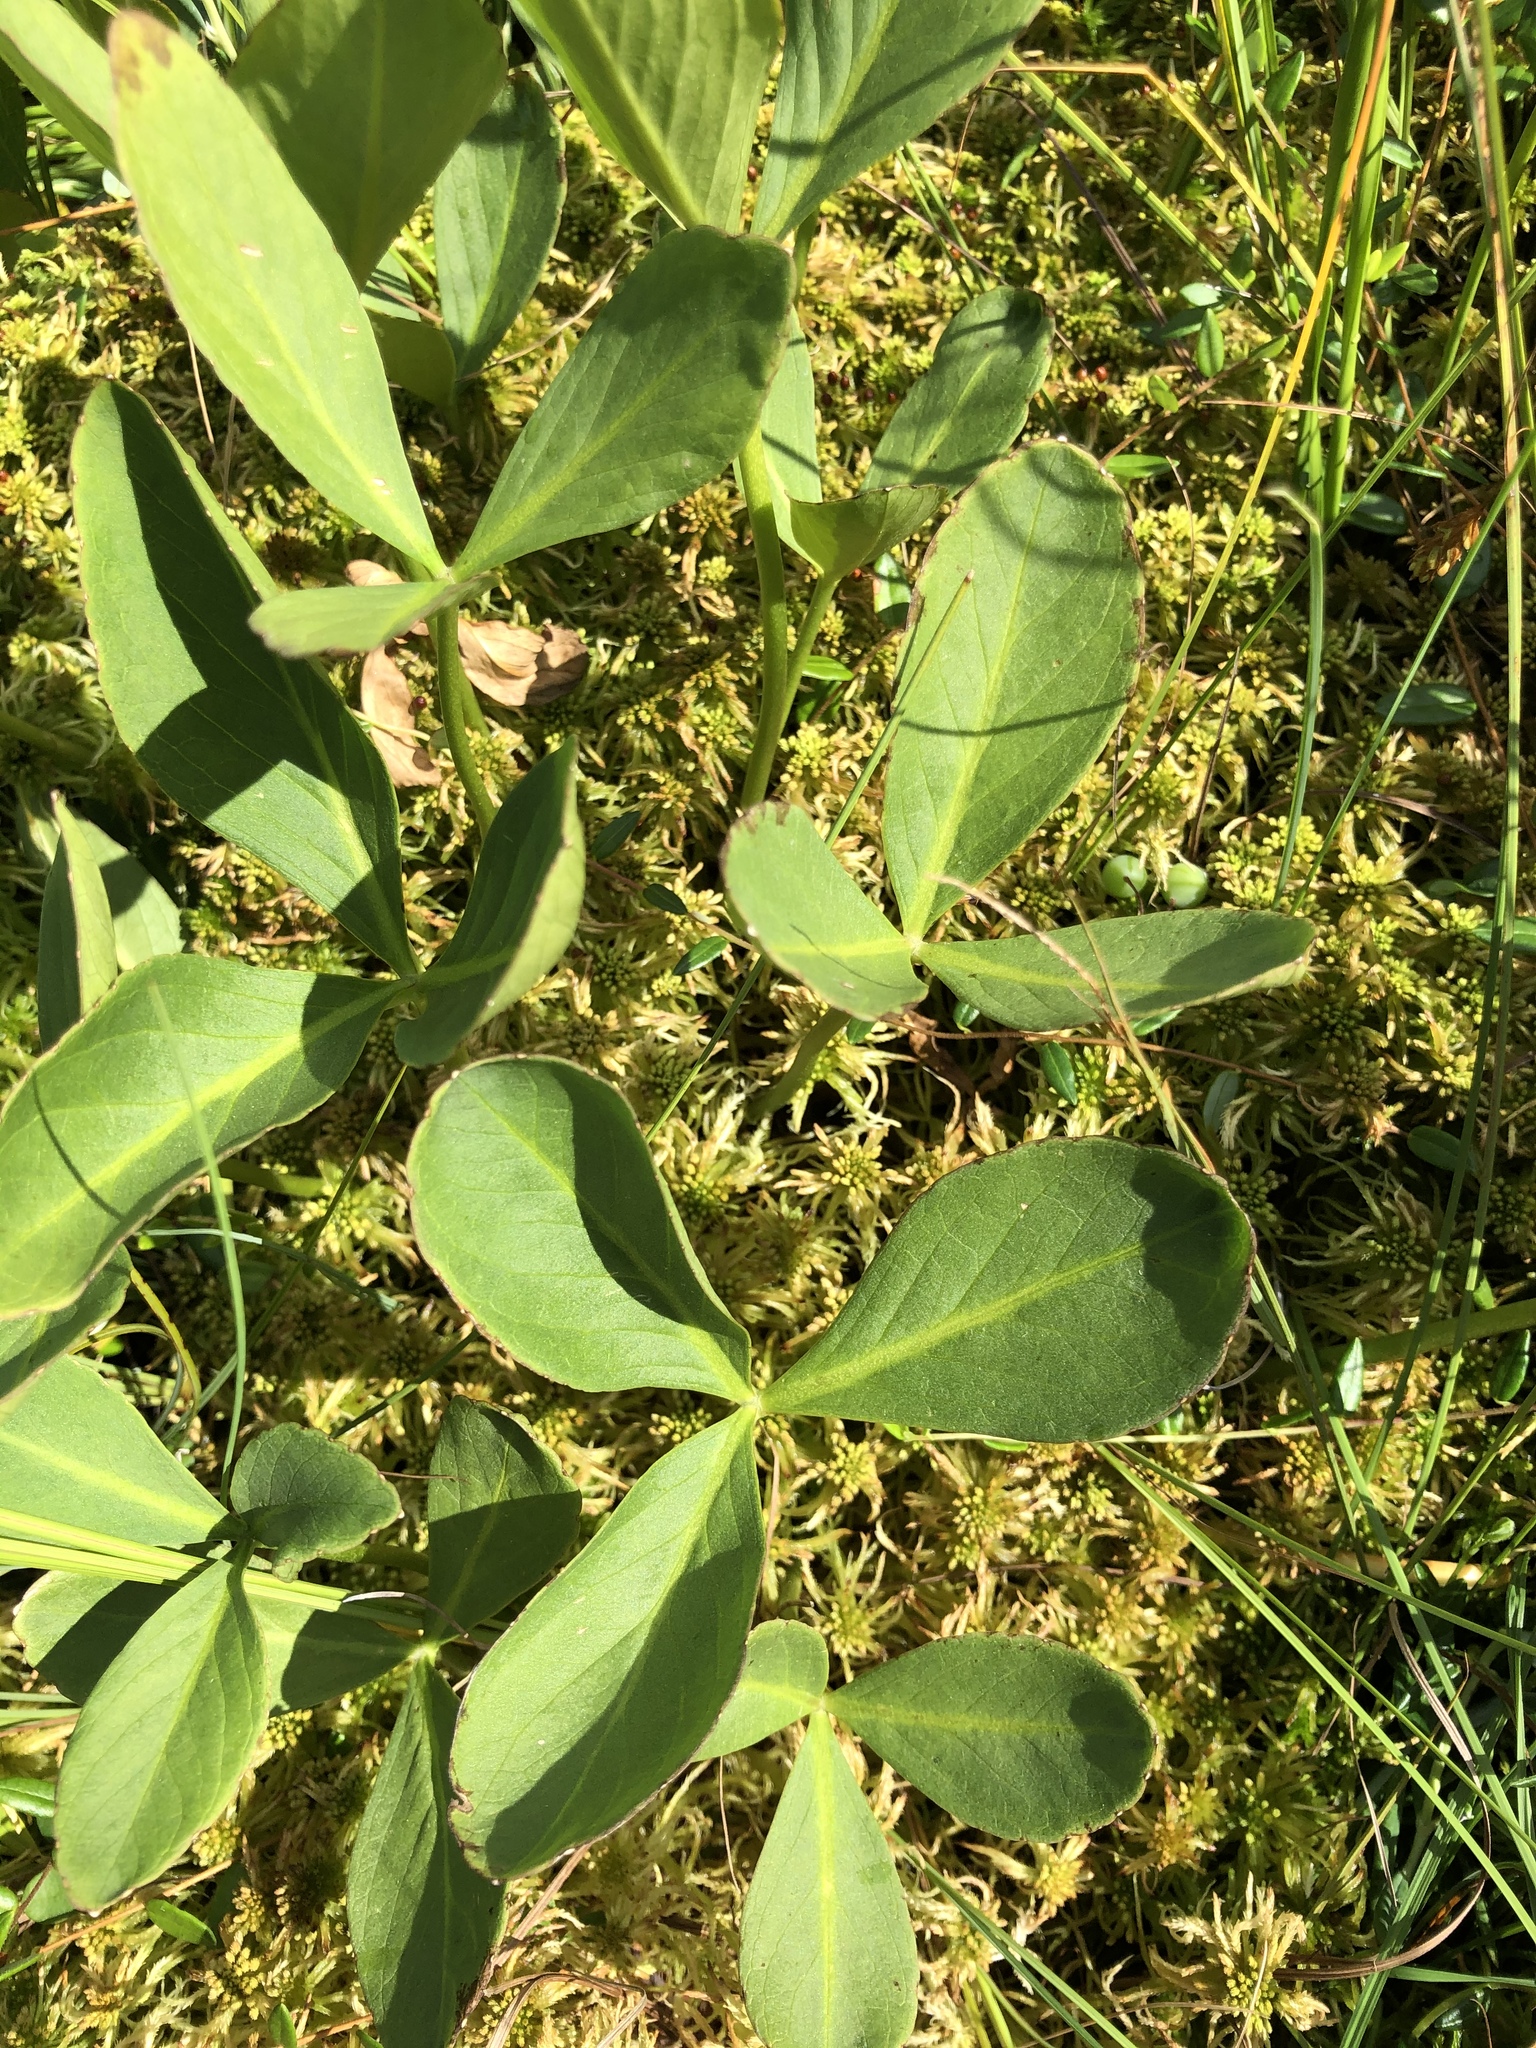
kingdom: Plantae
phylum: Tracheophyta
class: Magnoliopsida
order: Asterales
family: Menyanthaceae
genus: Menyanthes
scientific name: Menyanthes trifoliata
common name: Bogbean
